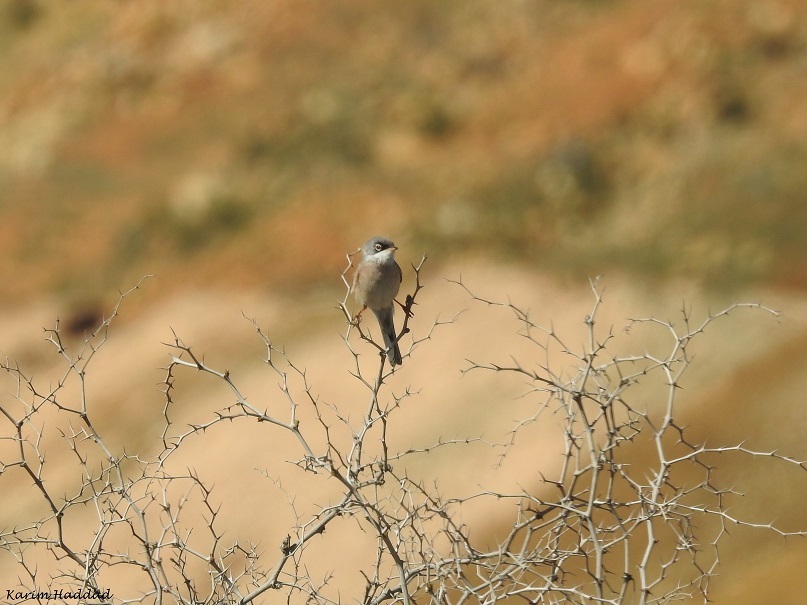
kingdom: Animalia
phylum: Chordata
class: Aves
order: Passeriformes
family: Sylviidae
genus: Sylvia
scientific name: Sylvia conspicillata
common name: Spectacled warbler
